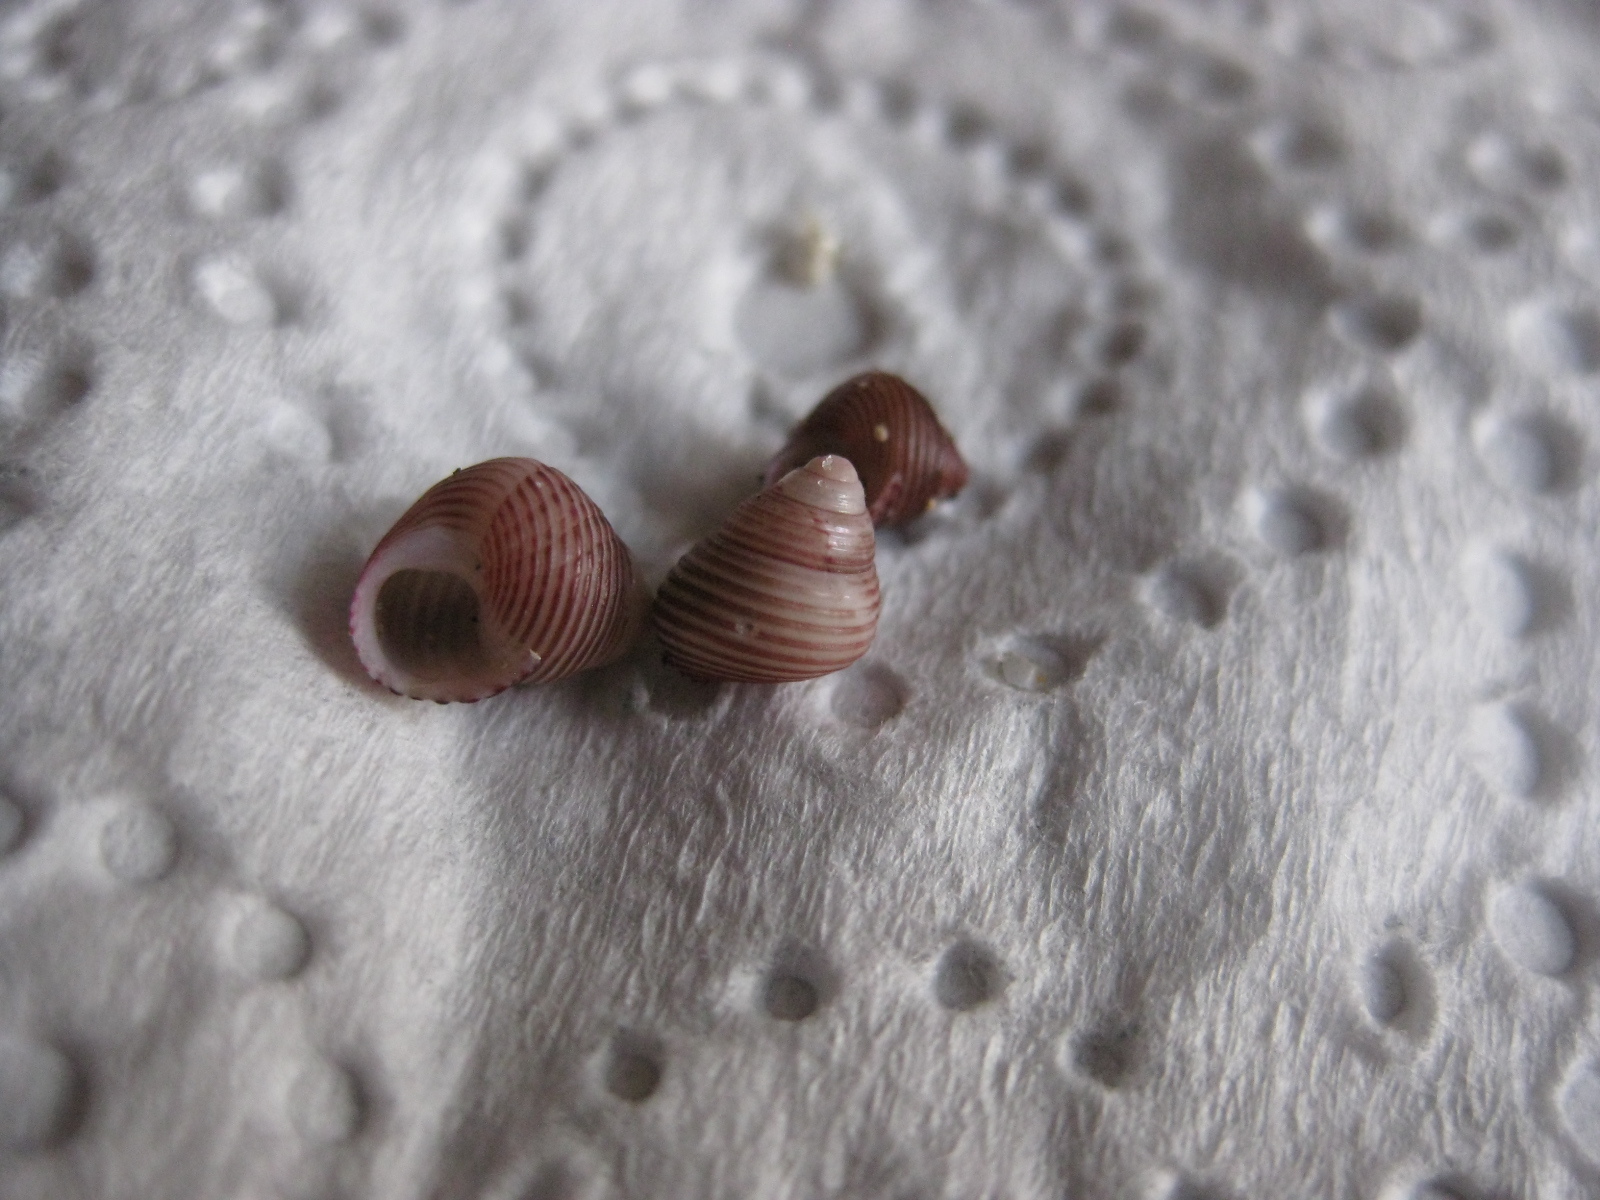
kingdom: Animalia
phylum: Mollusca
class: Gastropoda
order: Trochida
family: Trochidae
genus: Roseaplagis
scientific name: Roseaplagis rufozona
